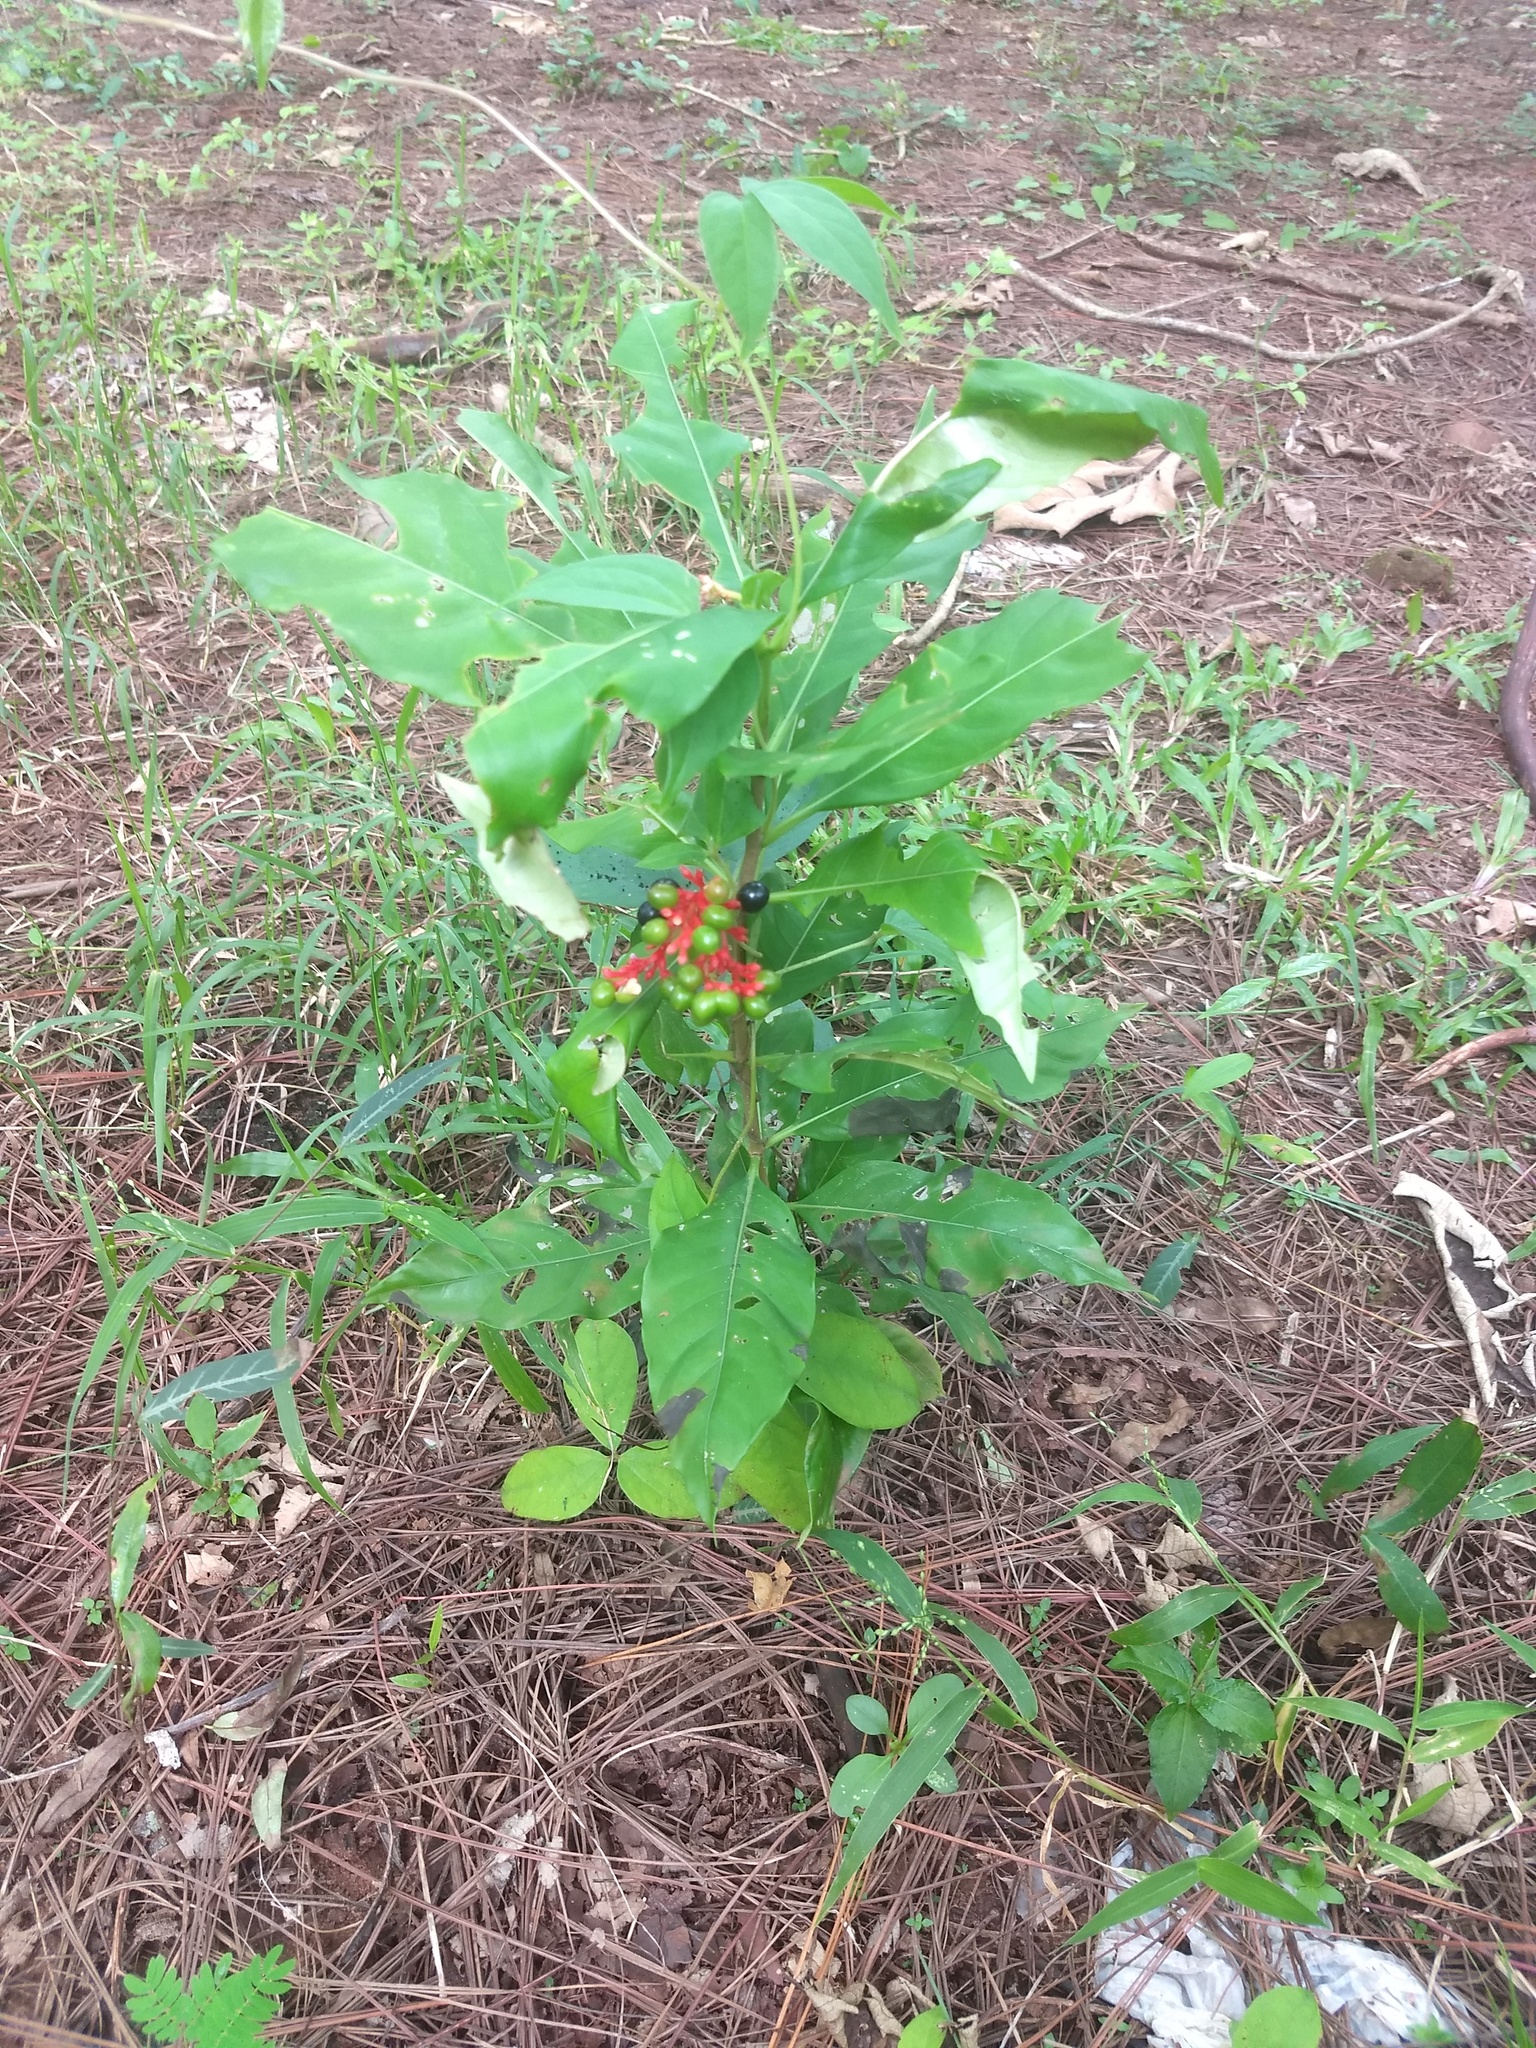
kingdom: Plantae
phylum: Tracheophyta
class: Magnoliopsida
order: Gentianales
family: Apocynaceae
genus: Rauvolfia
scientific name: Rauvolfia serpentina
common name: Ajmaline
